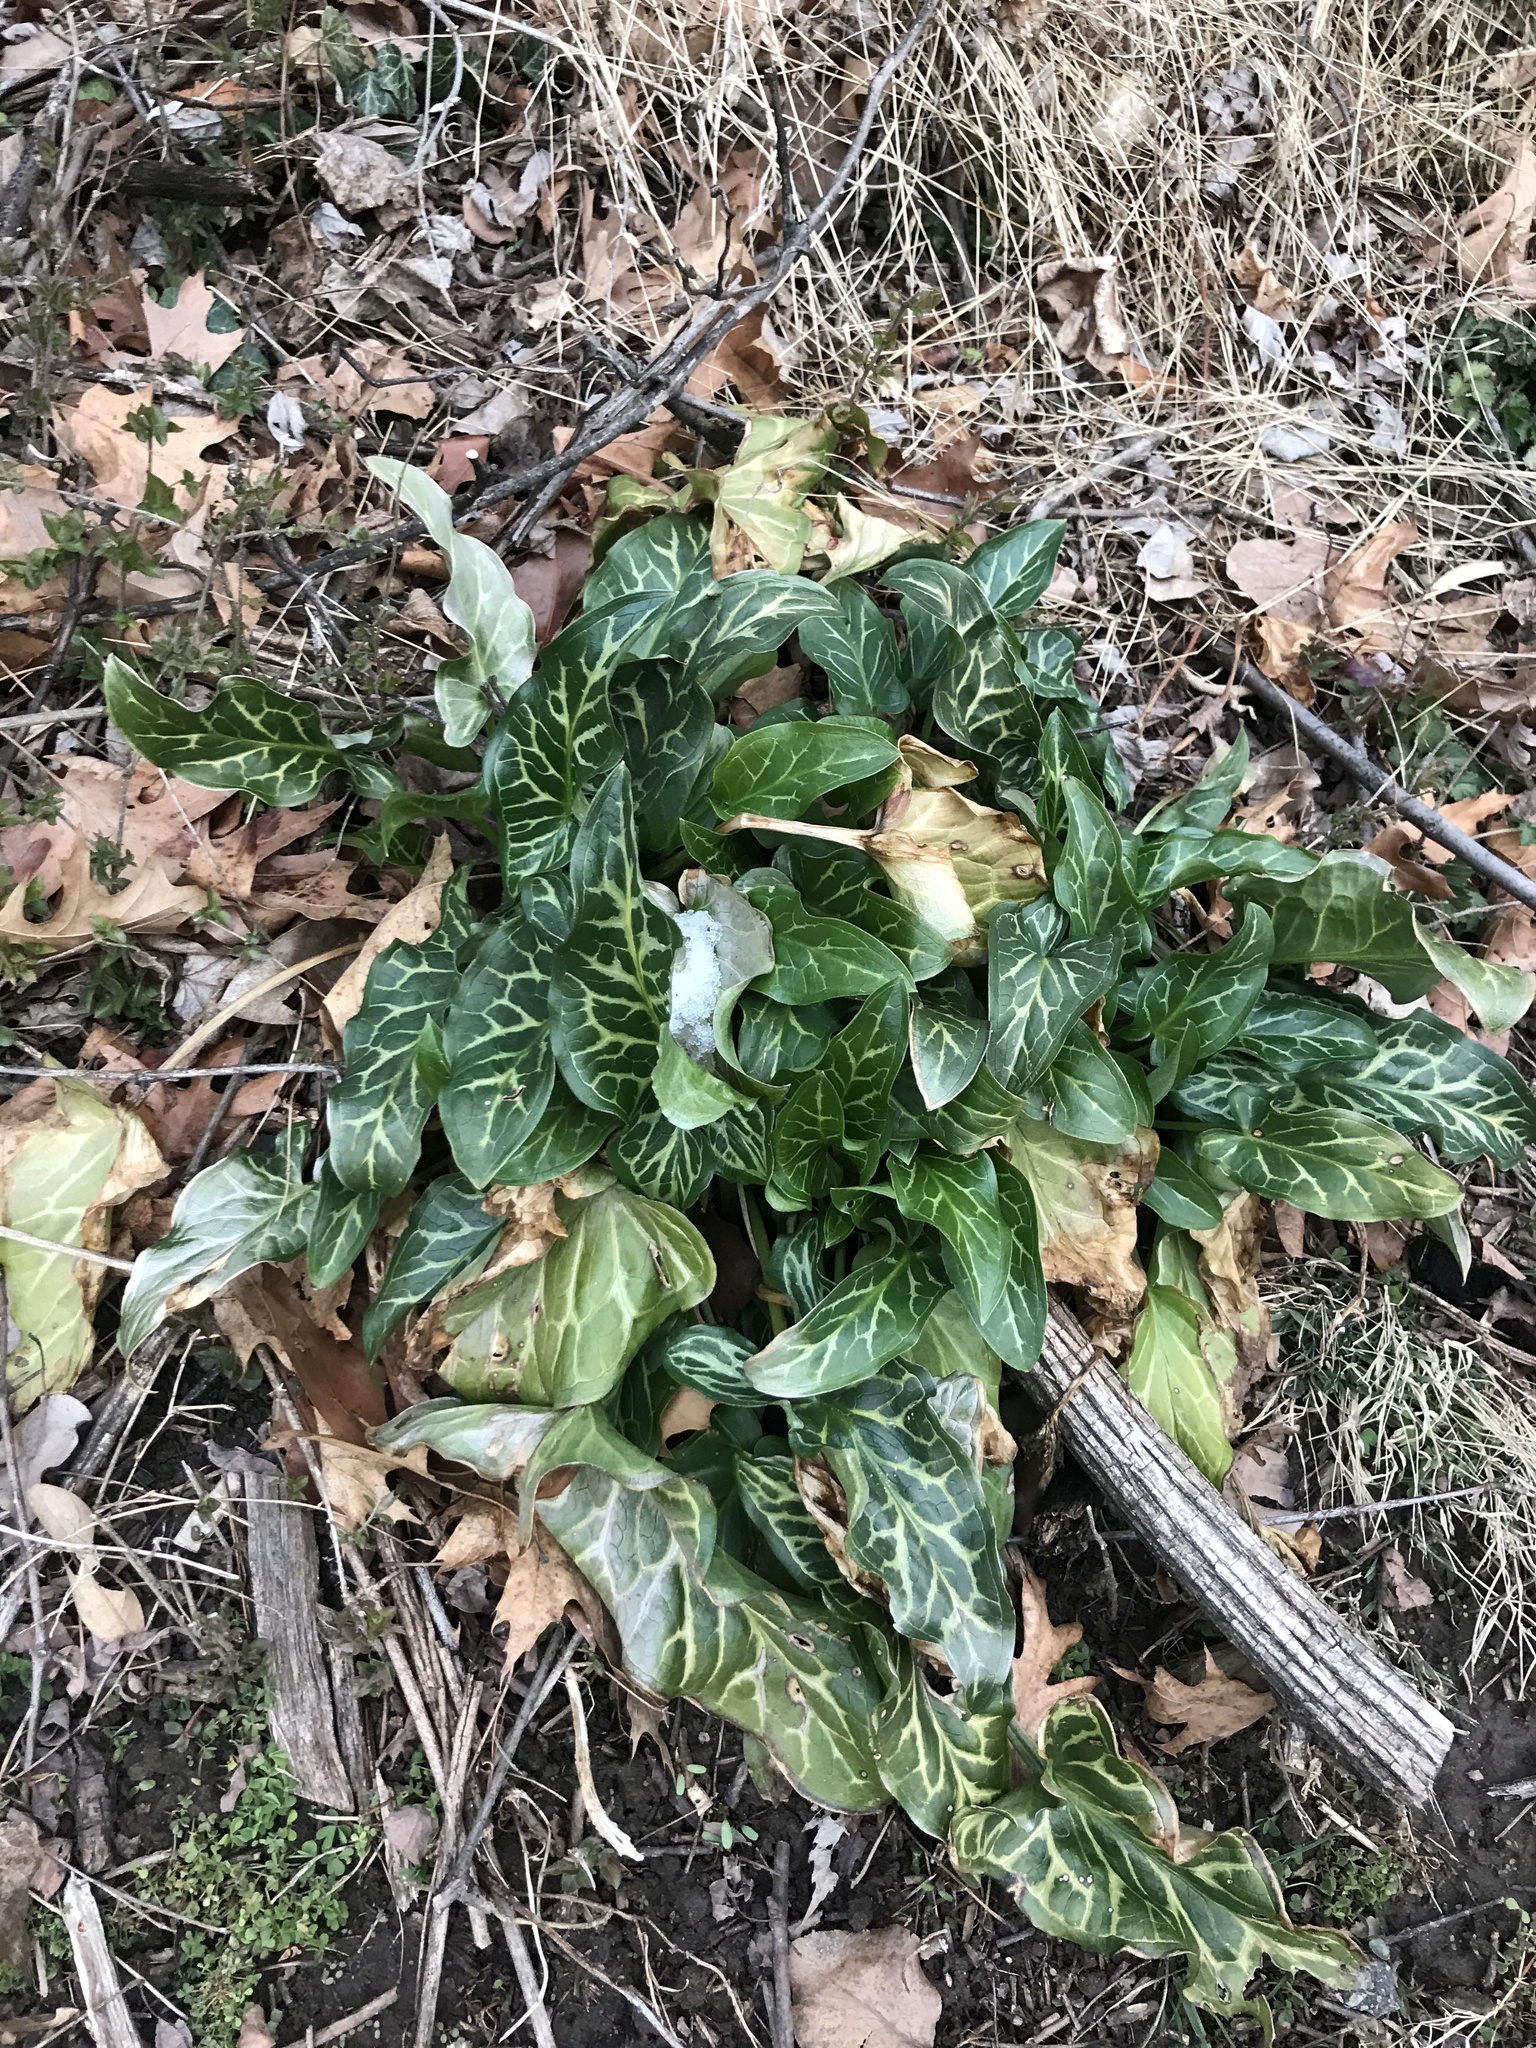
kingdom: Plantae
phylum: Tracheophyta
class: Liliopsida
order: Alismatales
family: Araceae
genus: Arum
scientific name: Arum italicum
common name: Italian lords-and-ladies
